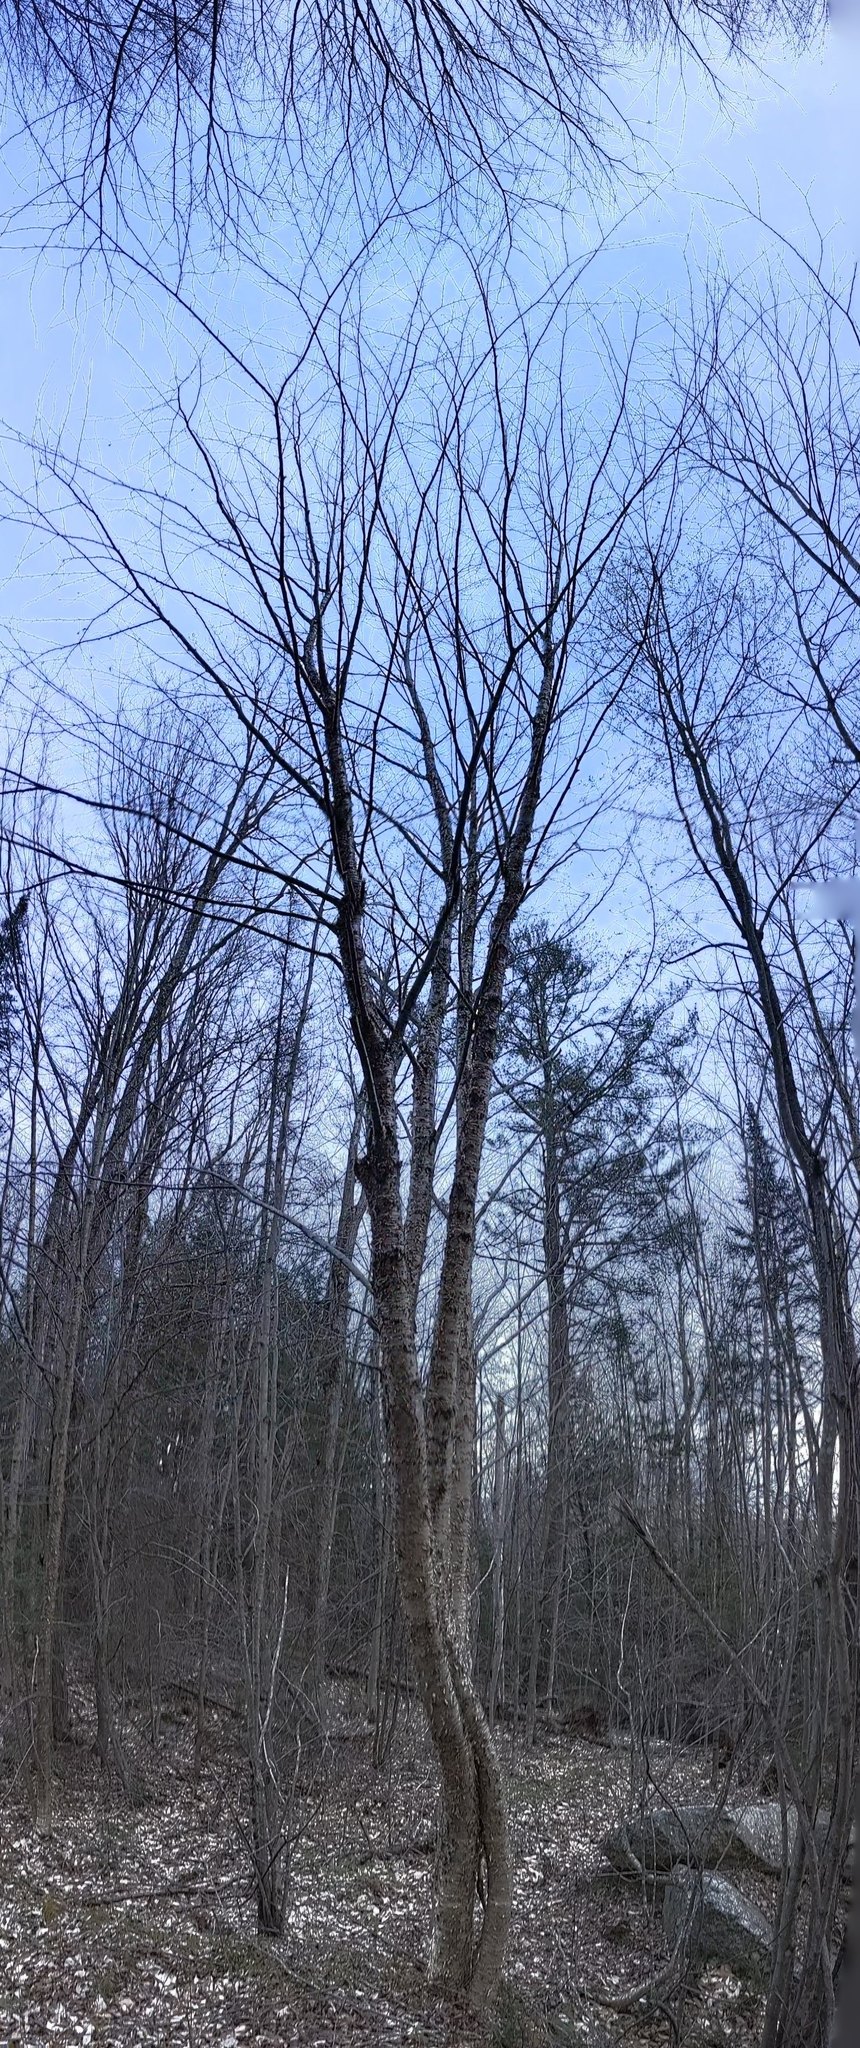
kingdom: Plantae
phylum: Tracheophyta
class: Magnoliopsida
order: Fagales
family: Betulaceae
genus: Betula
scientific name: Betula alleghaniensis
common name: Yellow birch
